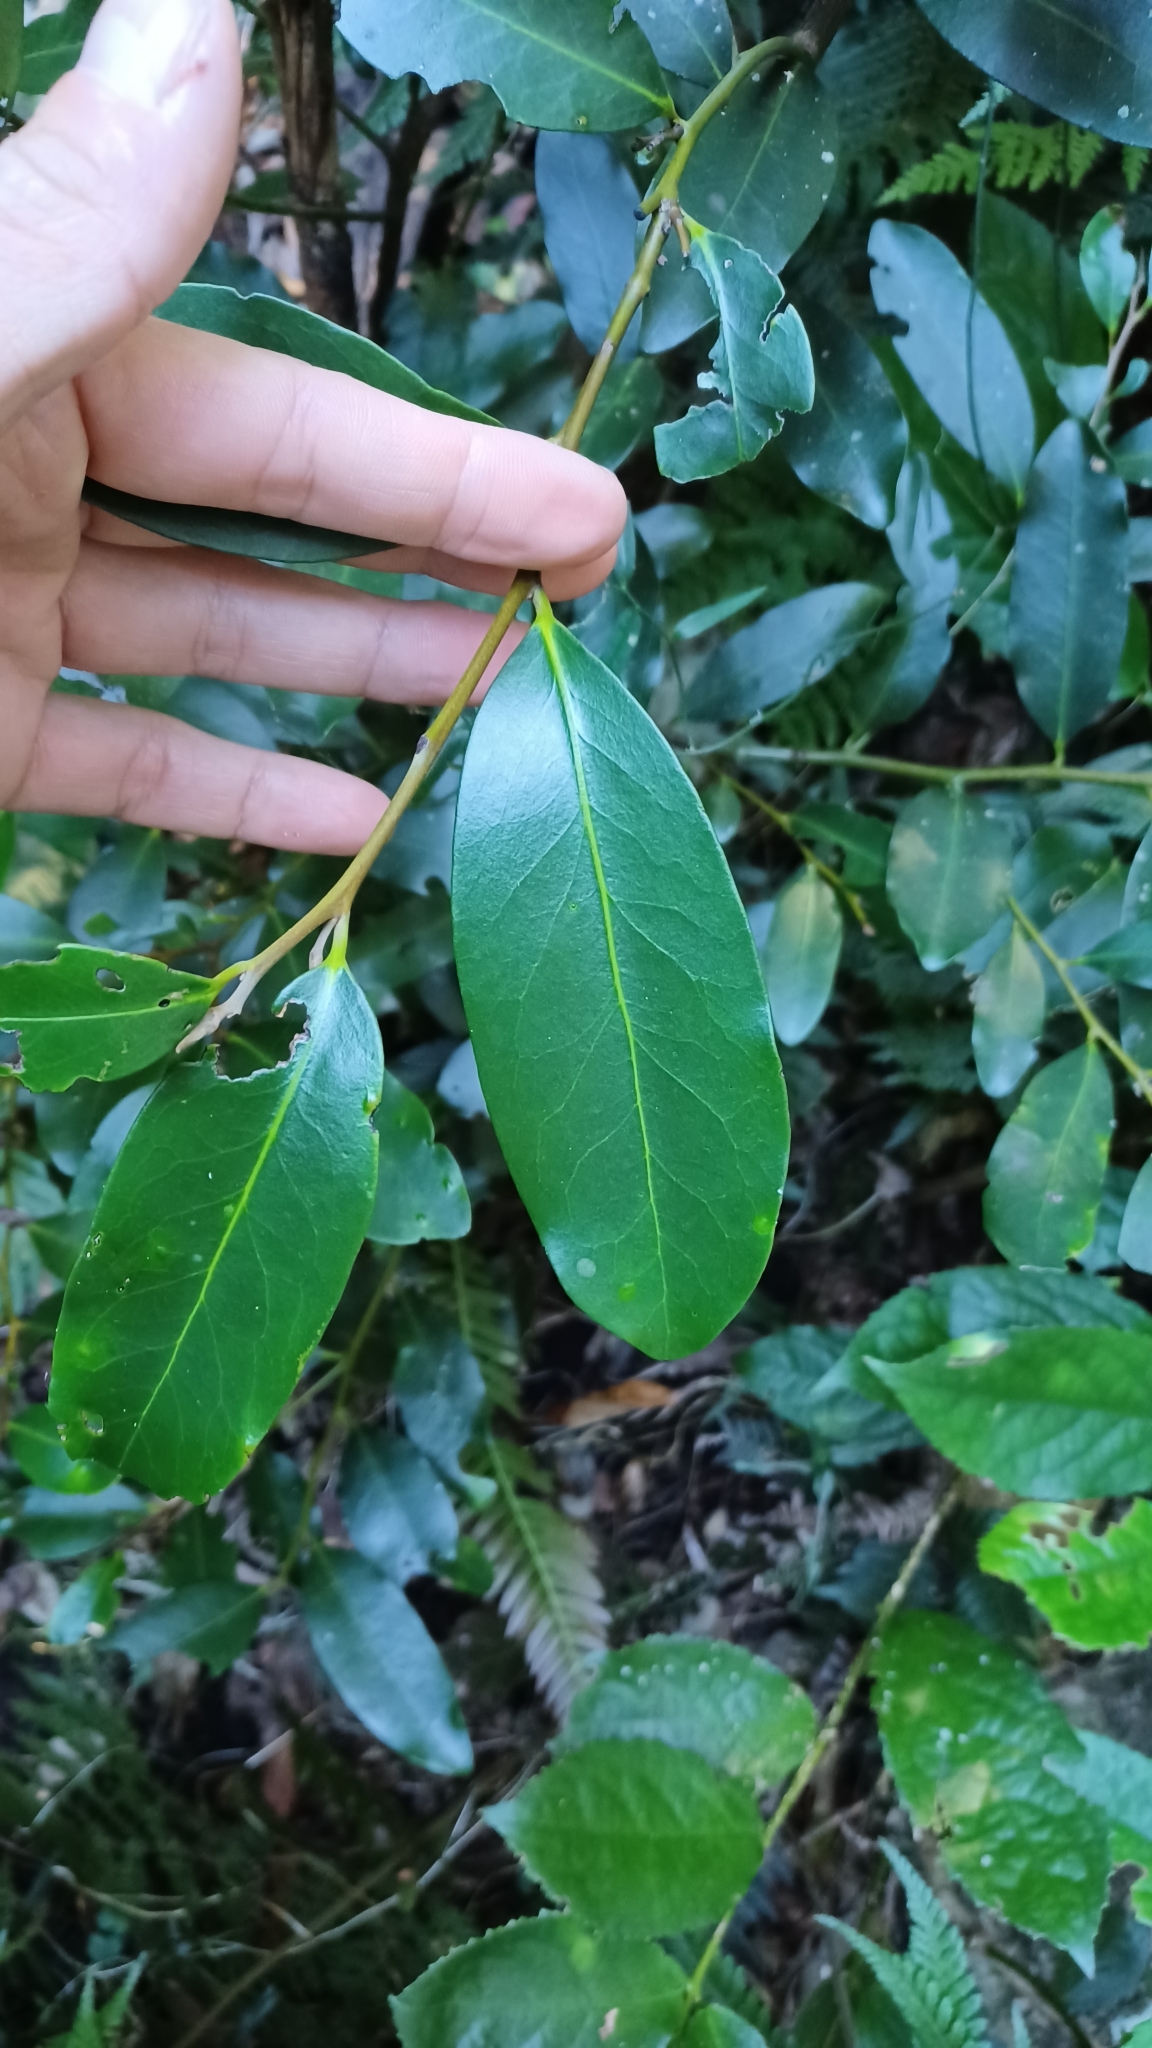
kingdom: Plantae
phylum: Tracheophyta
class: Magnoliopsida
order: Ericales
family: Ebenaceae
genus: Diospyros
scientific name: Diospyros australis
